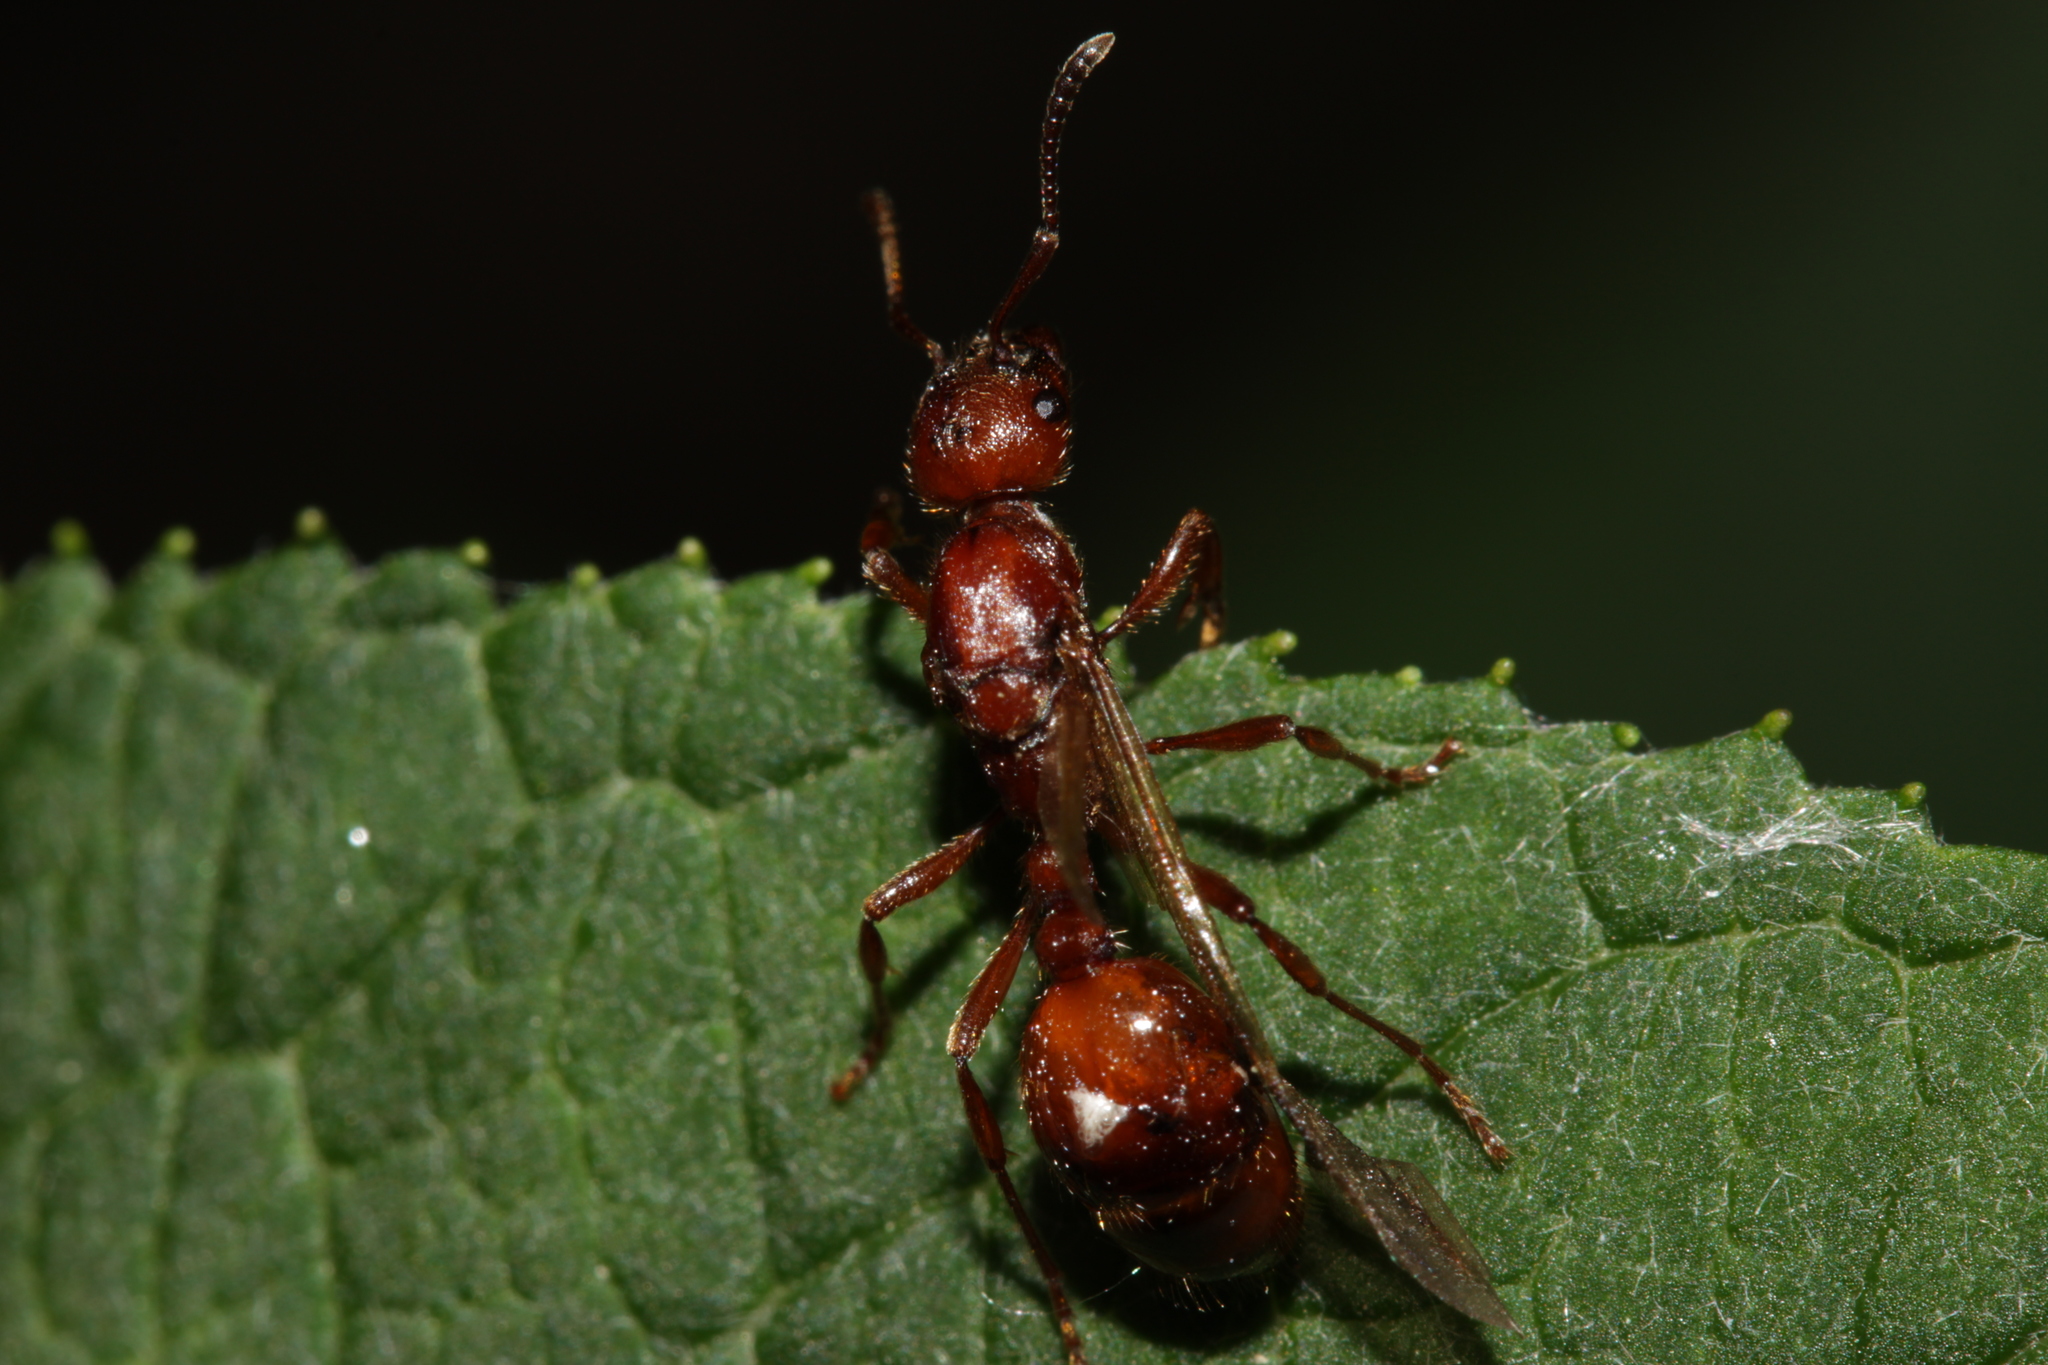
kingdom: Animalia
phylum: Arthropoda
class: Insecta
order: Hymenoptera
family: Formicidae
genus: Manica
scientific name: Manica rubida
